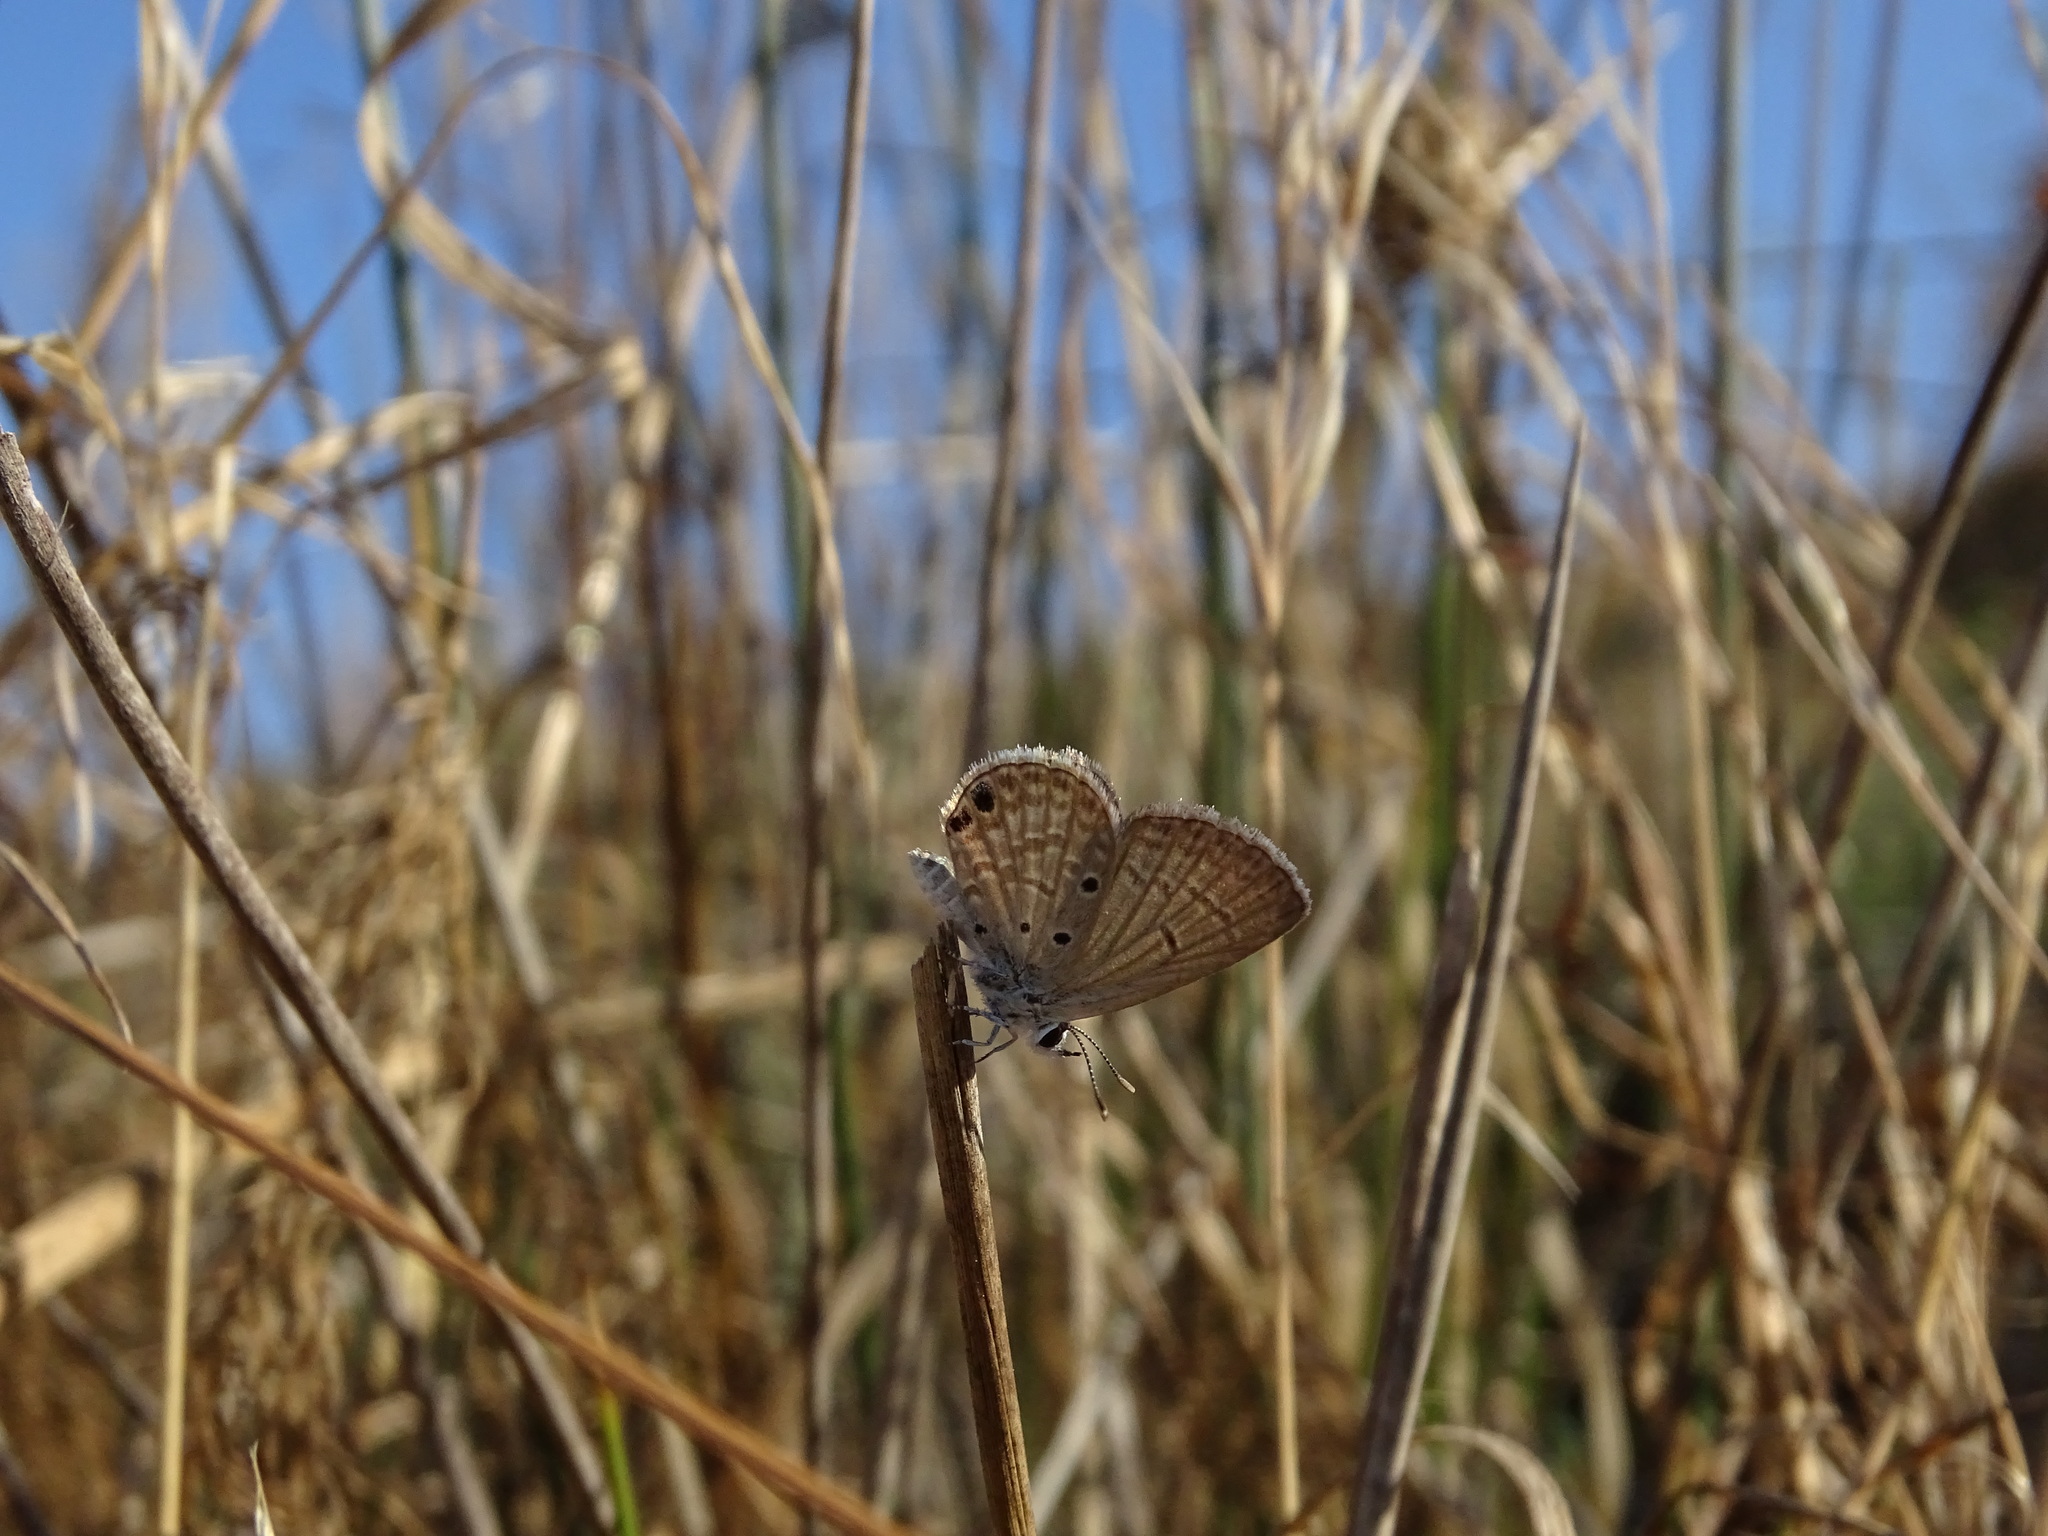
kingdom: Animalia
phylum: Arthropoda
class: Insecta
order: Lepidoptera
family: Lycaenidae
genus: Luthrodes
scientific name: Luthrodes galba
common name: Small desert blue
